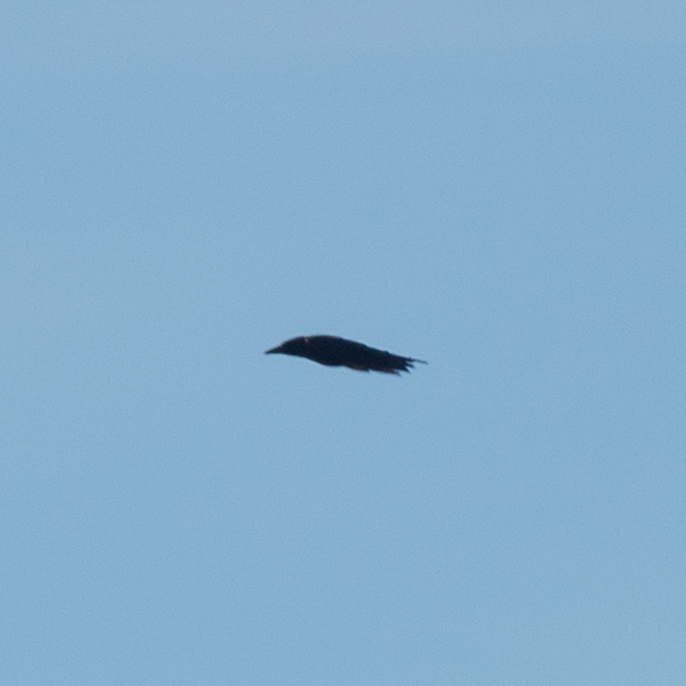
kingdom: Animalia
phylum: Chordata
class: Aves
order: Passeriformes
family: Corvidae
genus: Corvus
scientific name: Corvus corone
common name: Carrion crow
